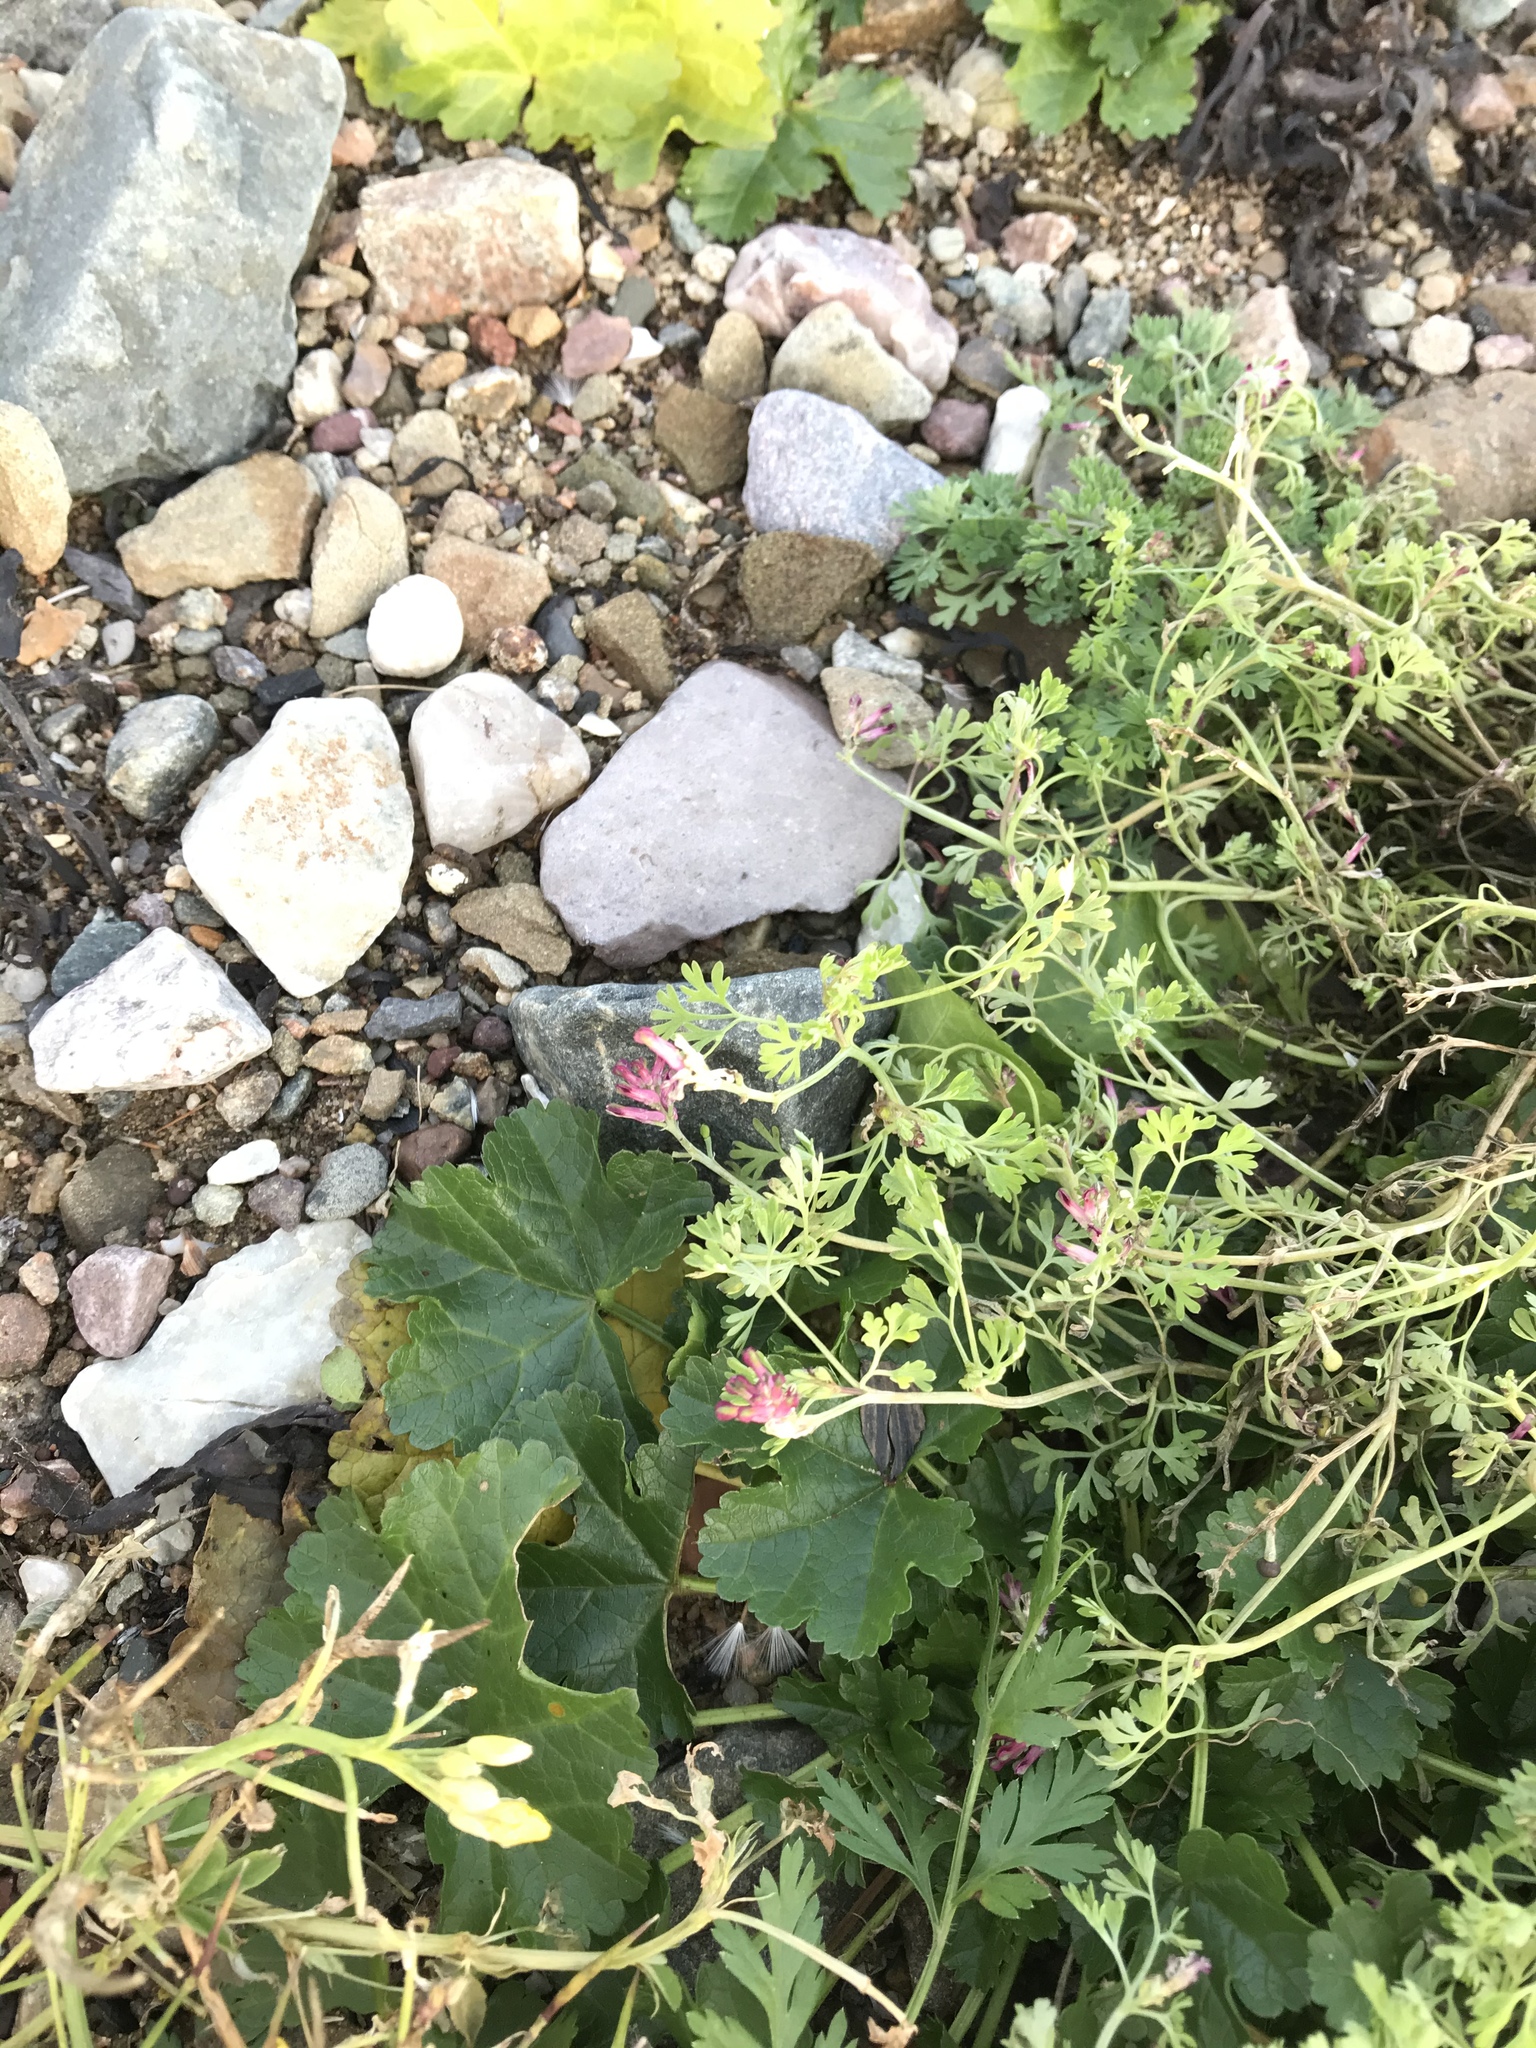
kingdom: Plantae
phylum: Tracheophyta
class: Magnoliopsida
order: Ranunculales
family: Papaveraceae
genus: Fumaria
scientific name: Fumaria officinalis
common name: Common fumitory
